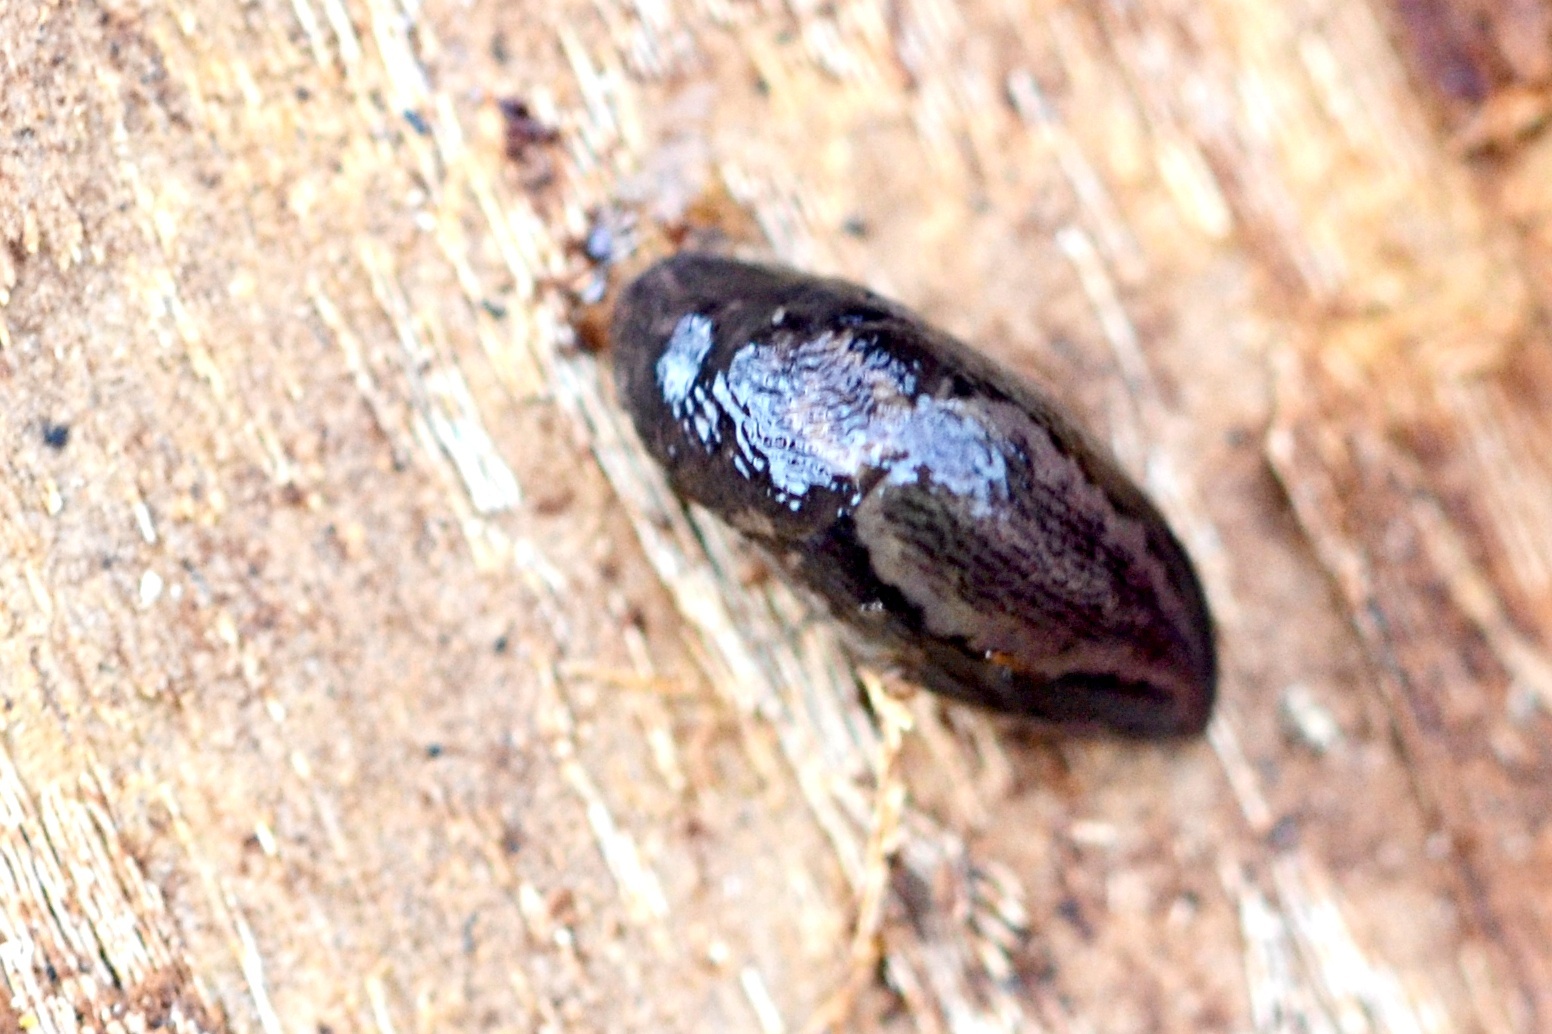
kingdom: Animalia
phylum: Mollusca
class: Gastropoda
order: Stylommatophora
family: Limacidae
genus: Limax
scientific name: Limax maximus
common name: Great grey slug
